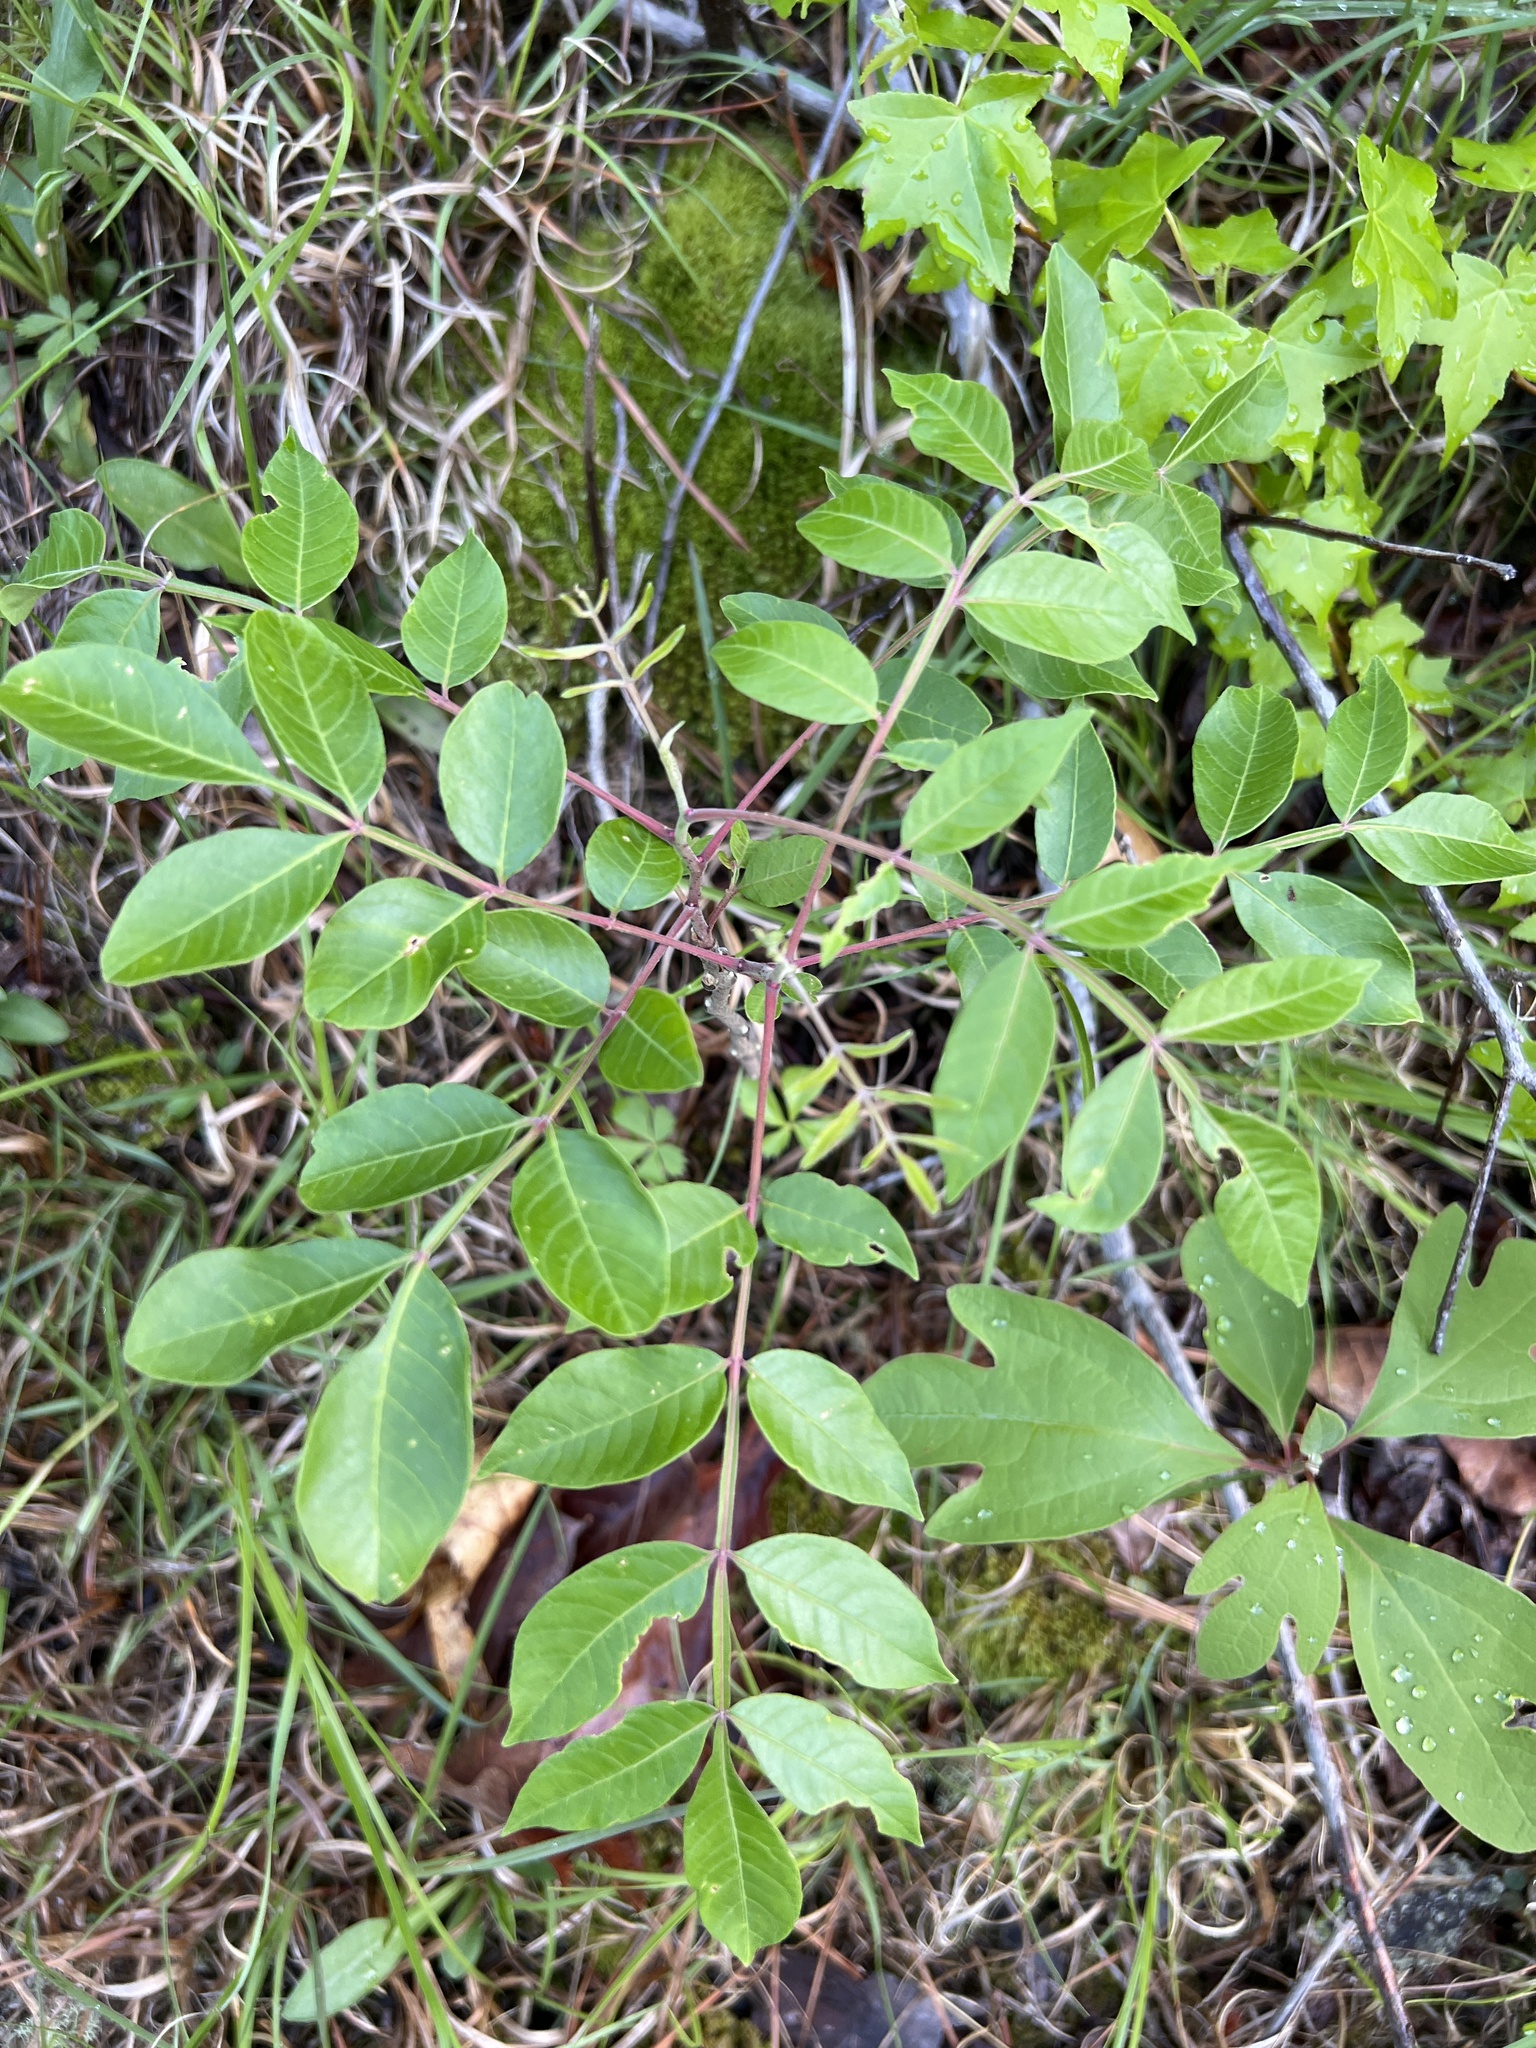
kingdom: Plantae
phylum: Tracheophyta
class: Magnoliopsida
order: Sapindales
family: Anacardiaceae
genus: Rhus
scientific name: Rhus copallina
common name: Shining sumac
